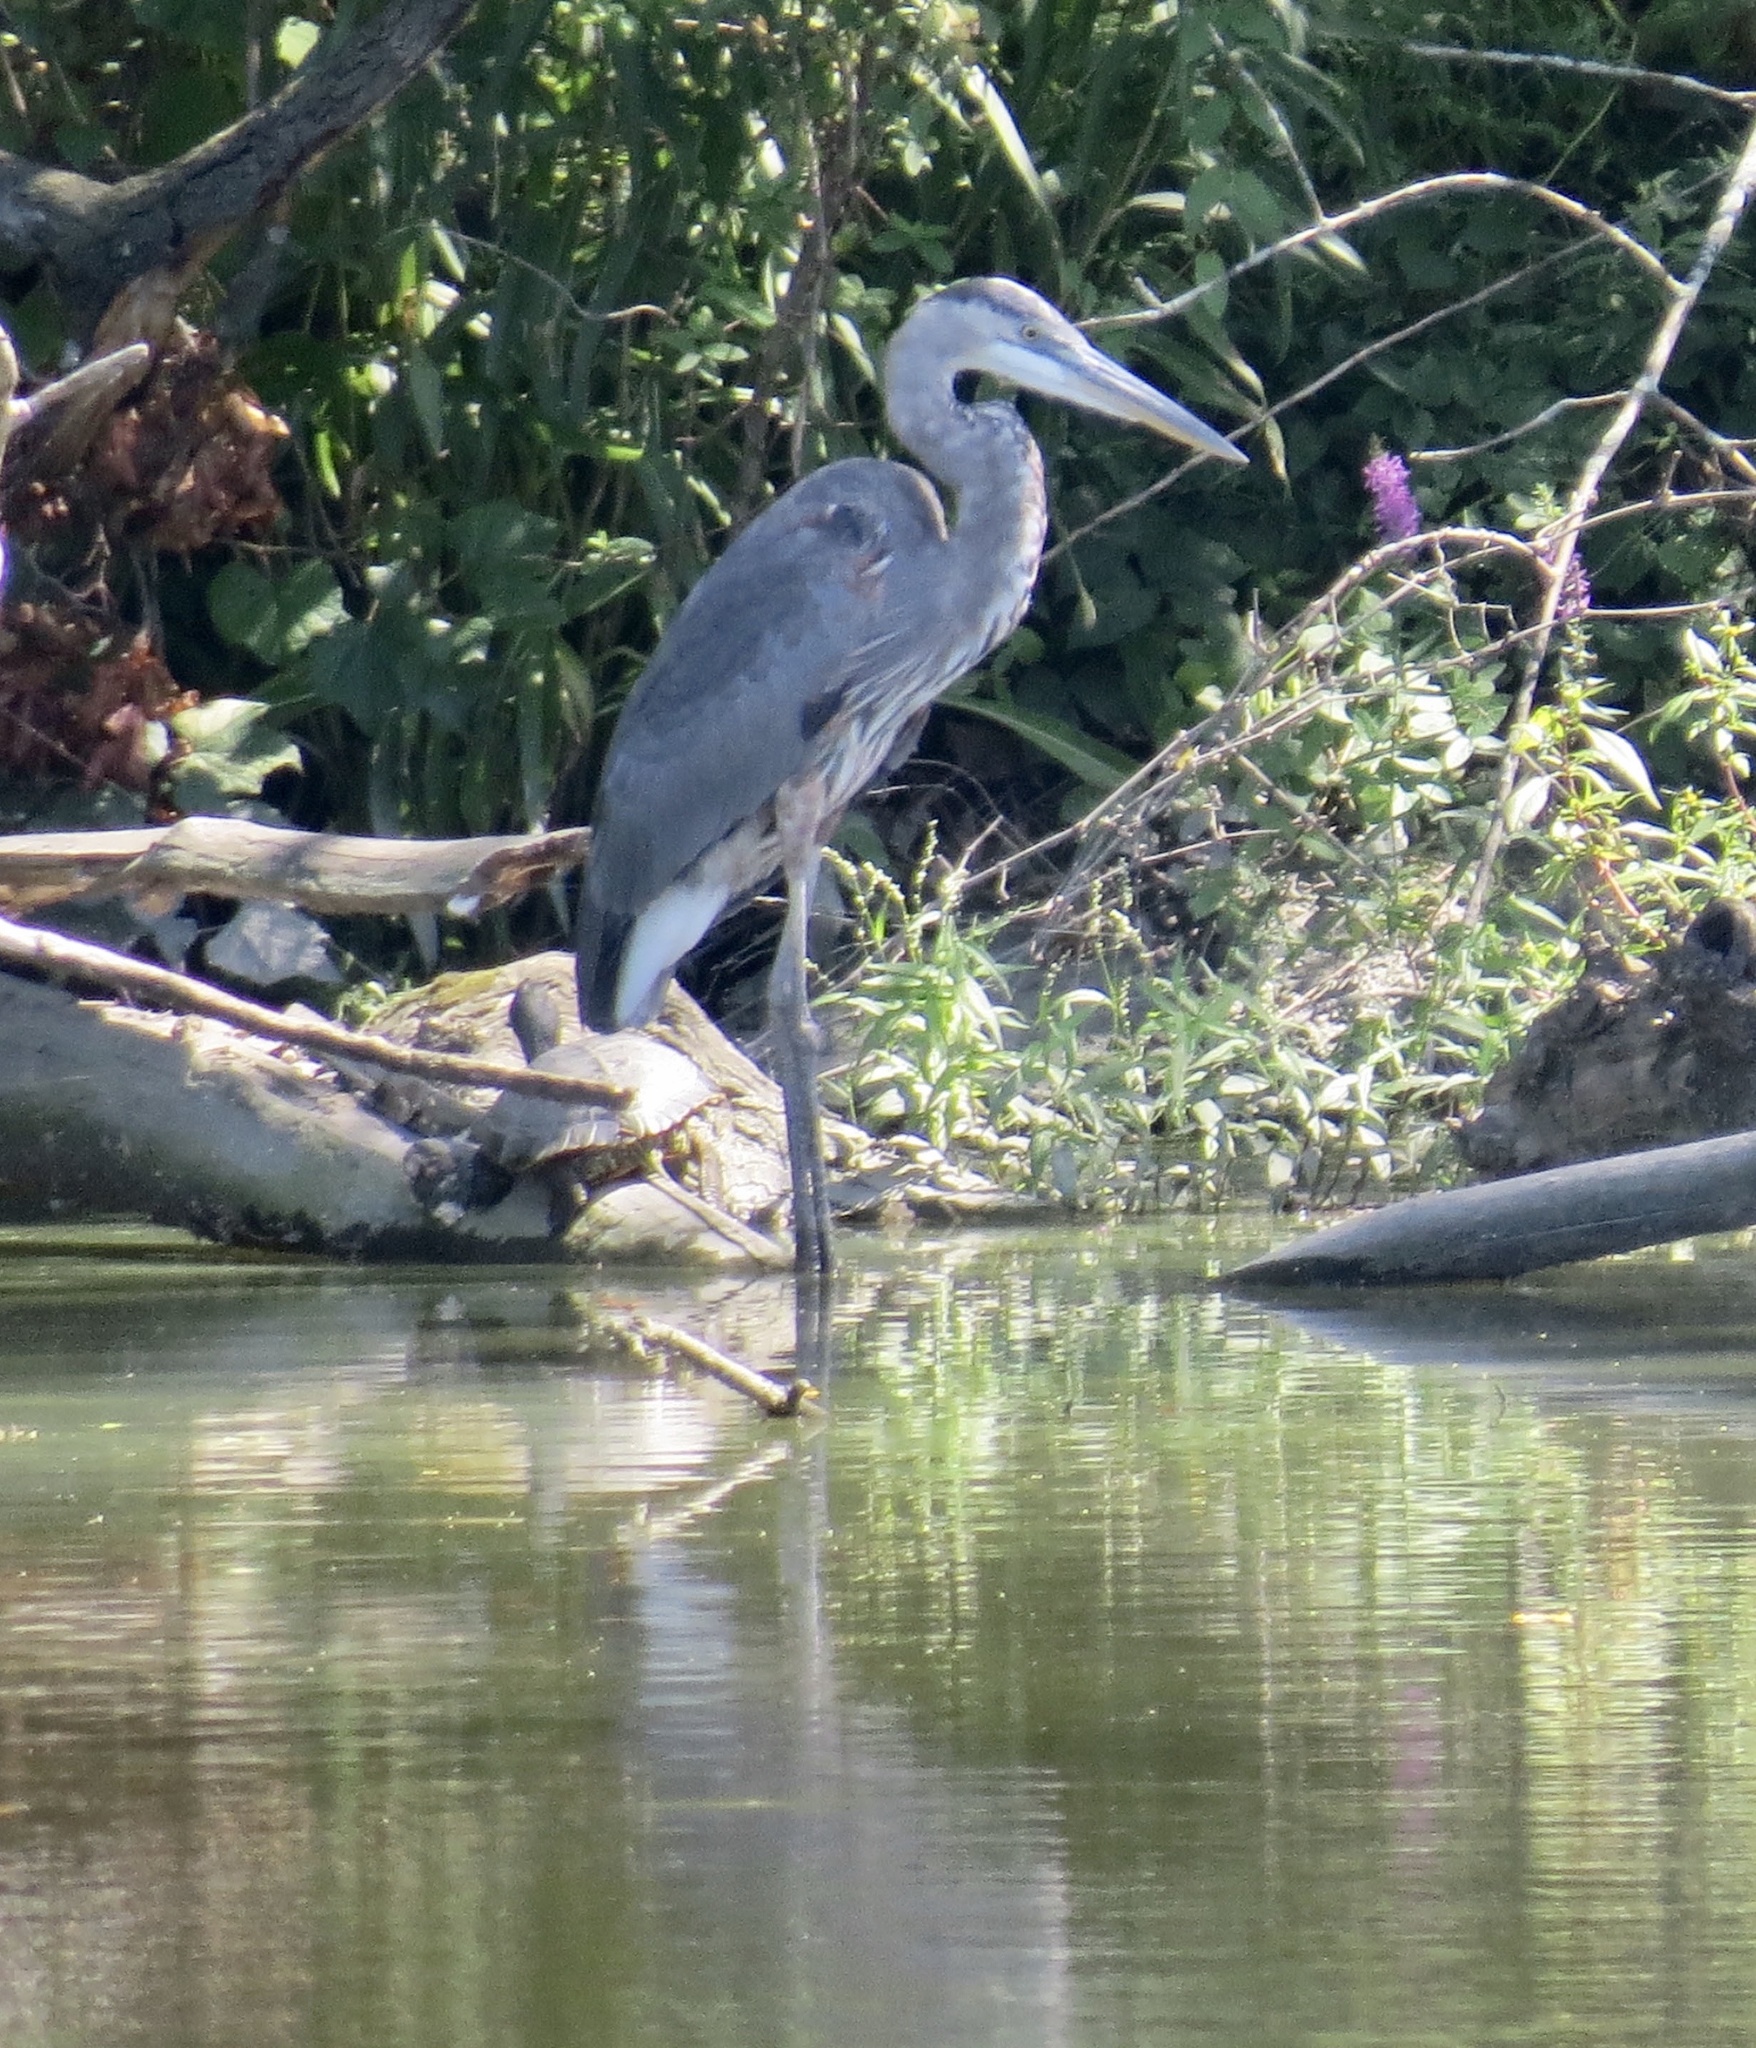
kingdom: Animalia
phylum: Chordata
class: Aves
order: Pelecaniformes
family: Ardeidae
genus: Ardea
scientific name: Ardea herodias
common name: Great blue heron
